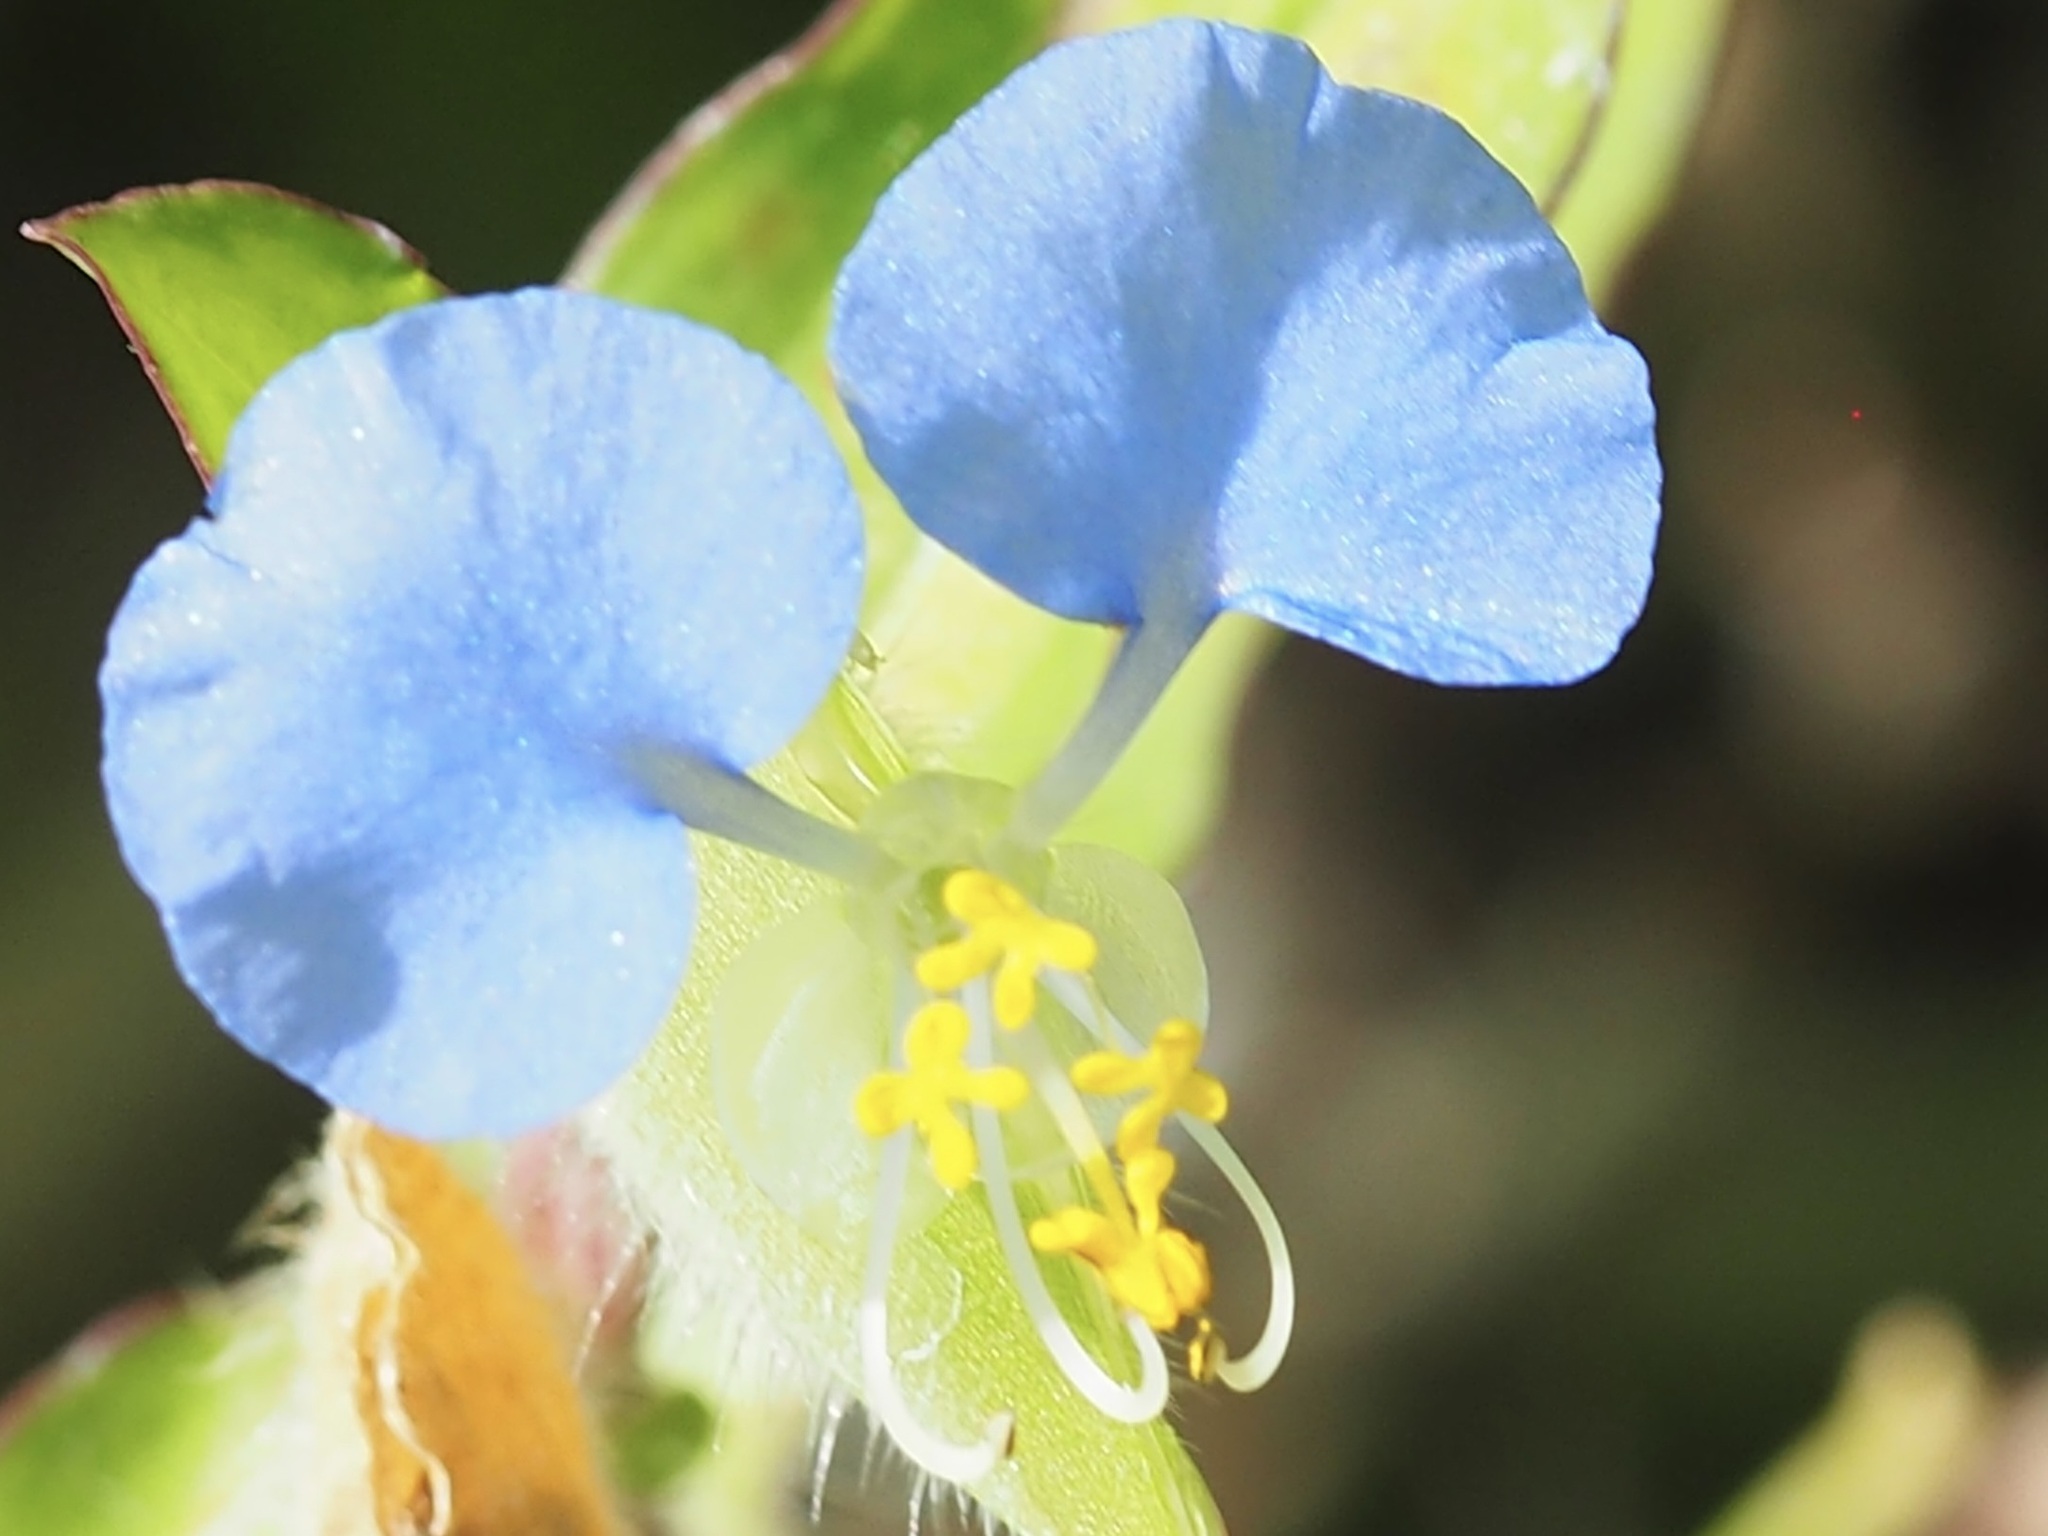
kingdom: Plantae
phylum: Tracheophyta
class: Liliopsida
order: Commelinales
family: Commelinaceae
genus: Commelina
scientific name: Commelina erecta
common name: Blousel blommetjie
